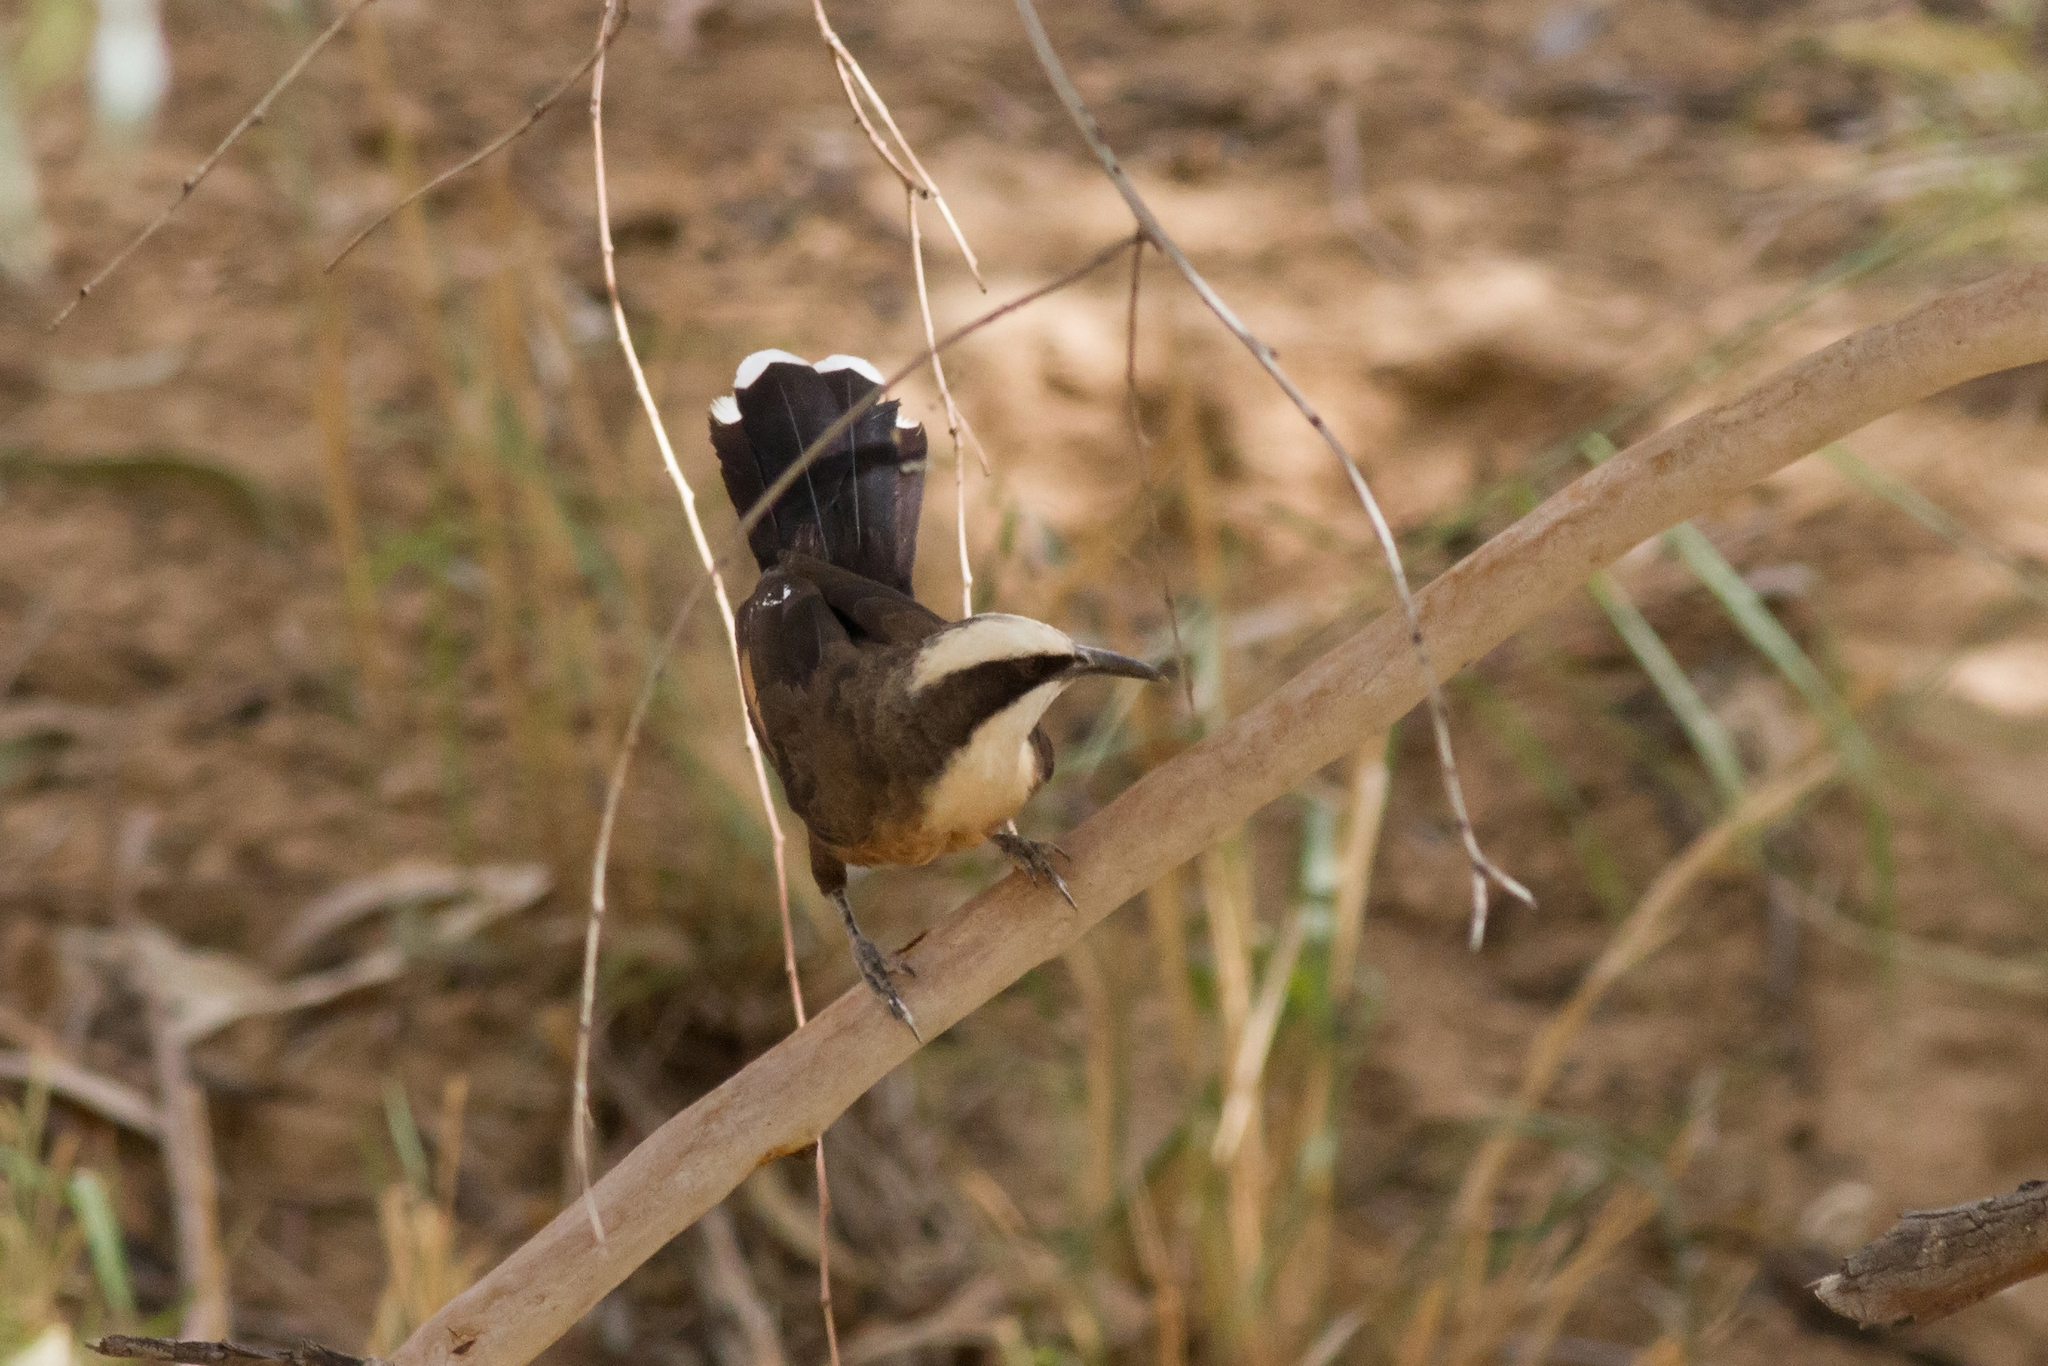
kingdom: Animalia
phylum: Chordata
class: Aves
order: Passeriformes
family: Pomatostomidae
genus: Pomatostomus
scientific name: Pomatostomus temporalis
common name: Grey-crowned babbler
